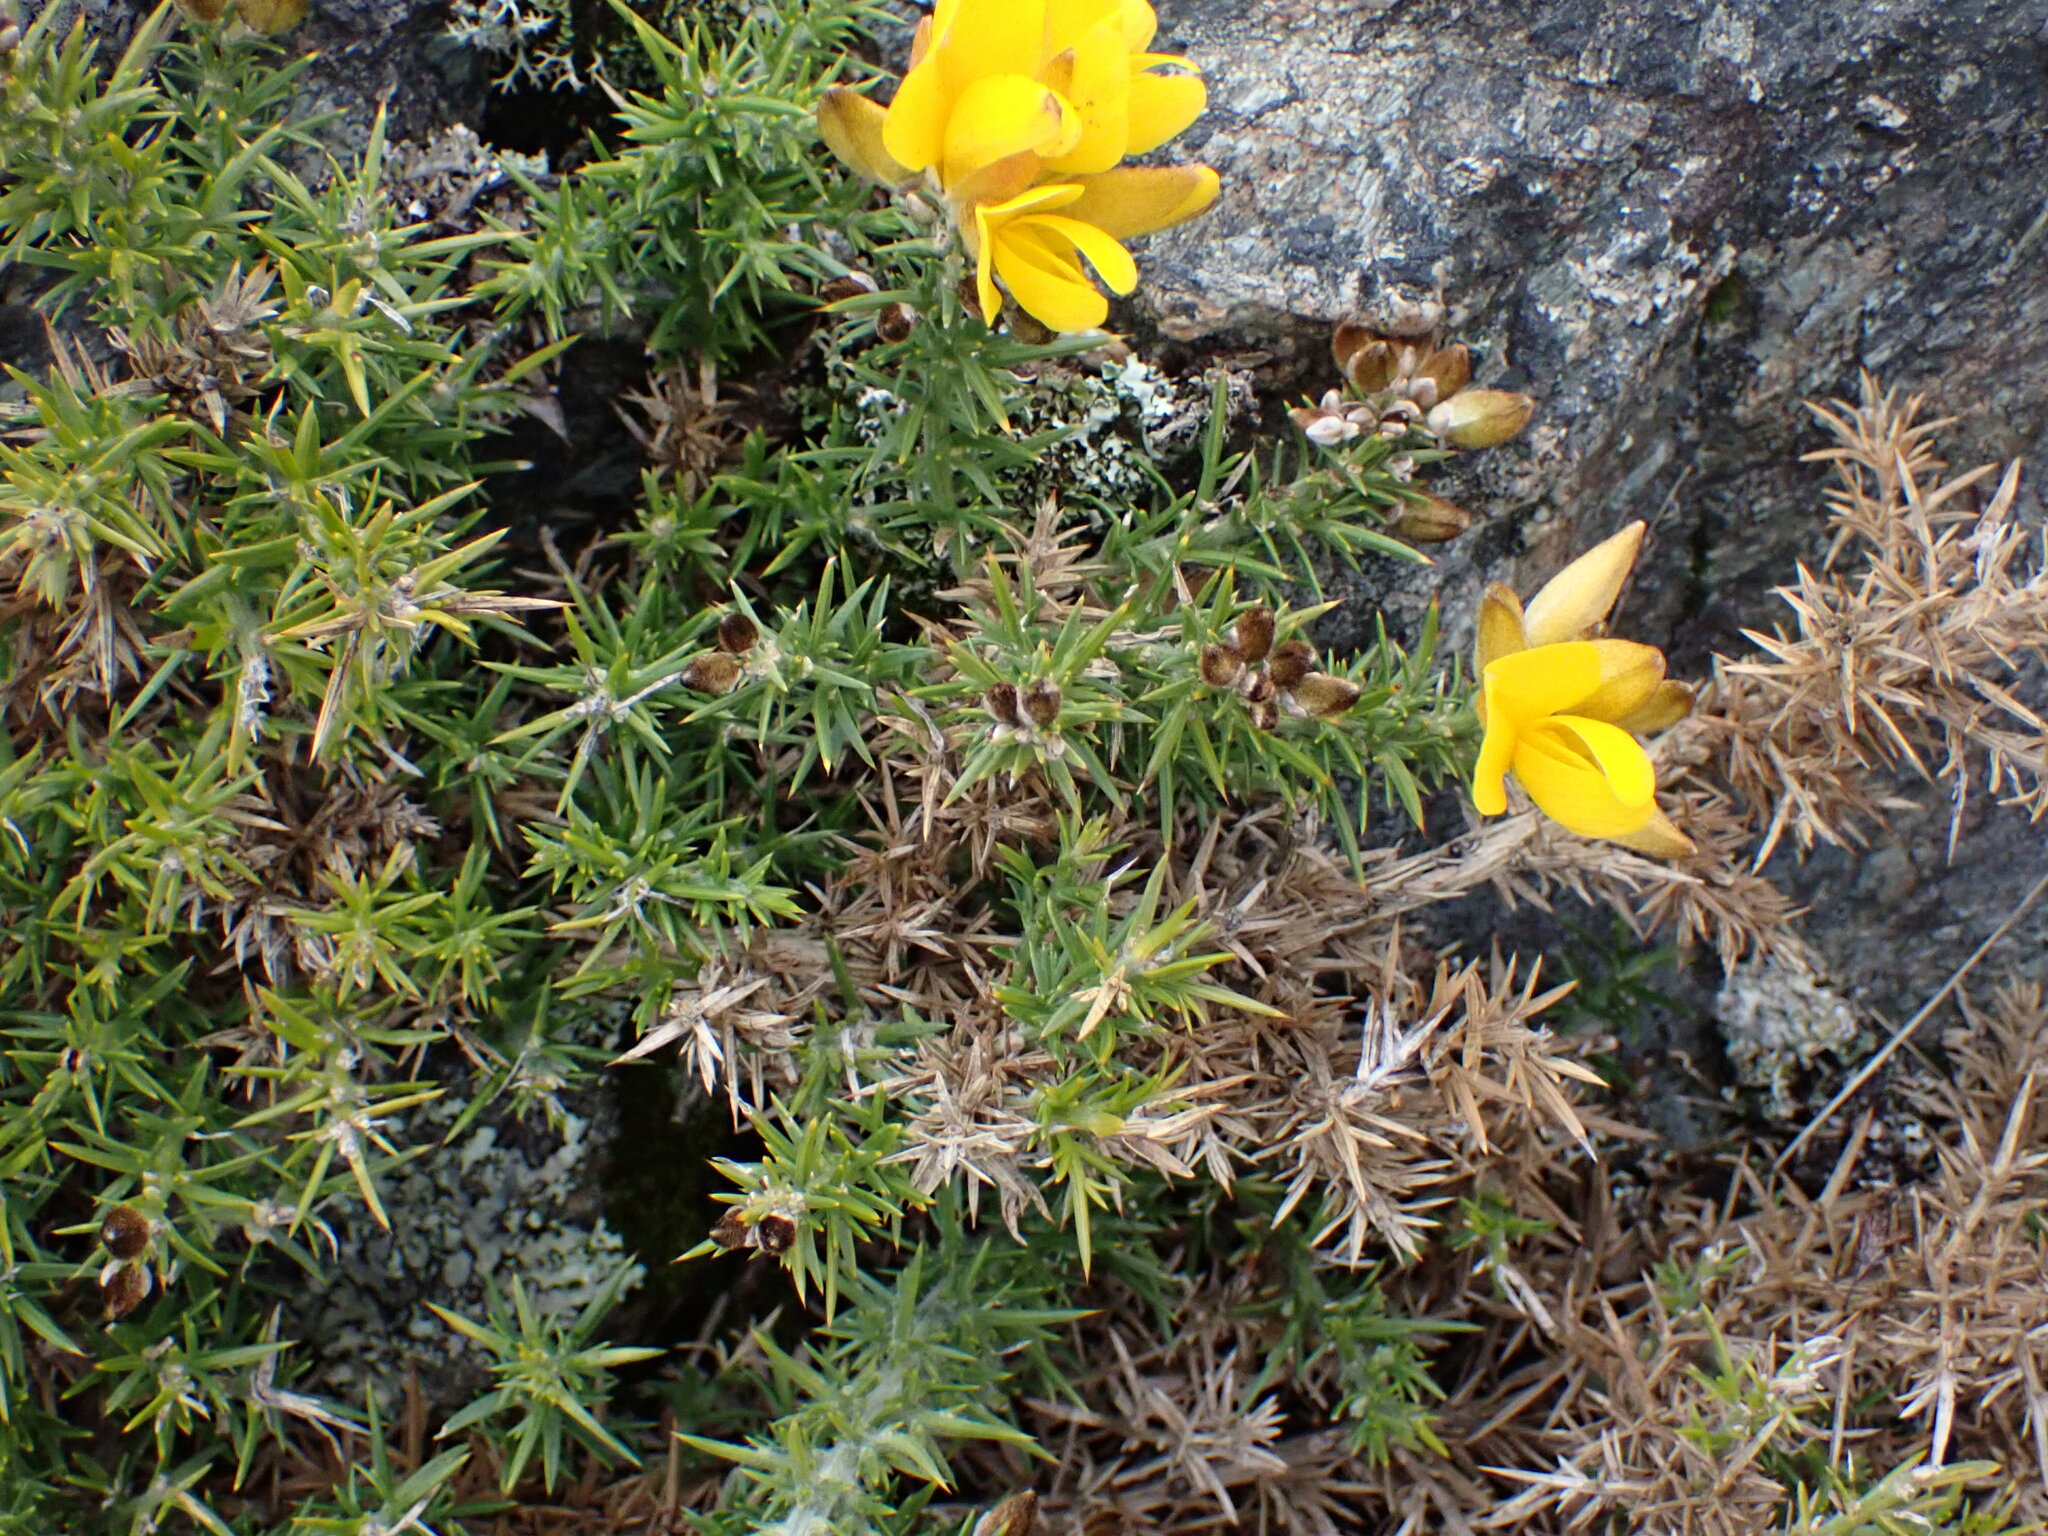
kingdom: Plantae
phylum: Tracheophyta
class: Magnoliopsida
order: Fabales
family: Fabaceae
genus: Ulex
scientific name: Ulex europaeus
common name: Common gorse
